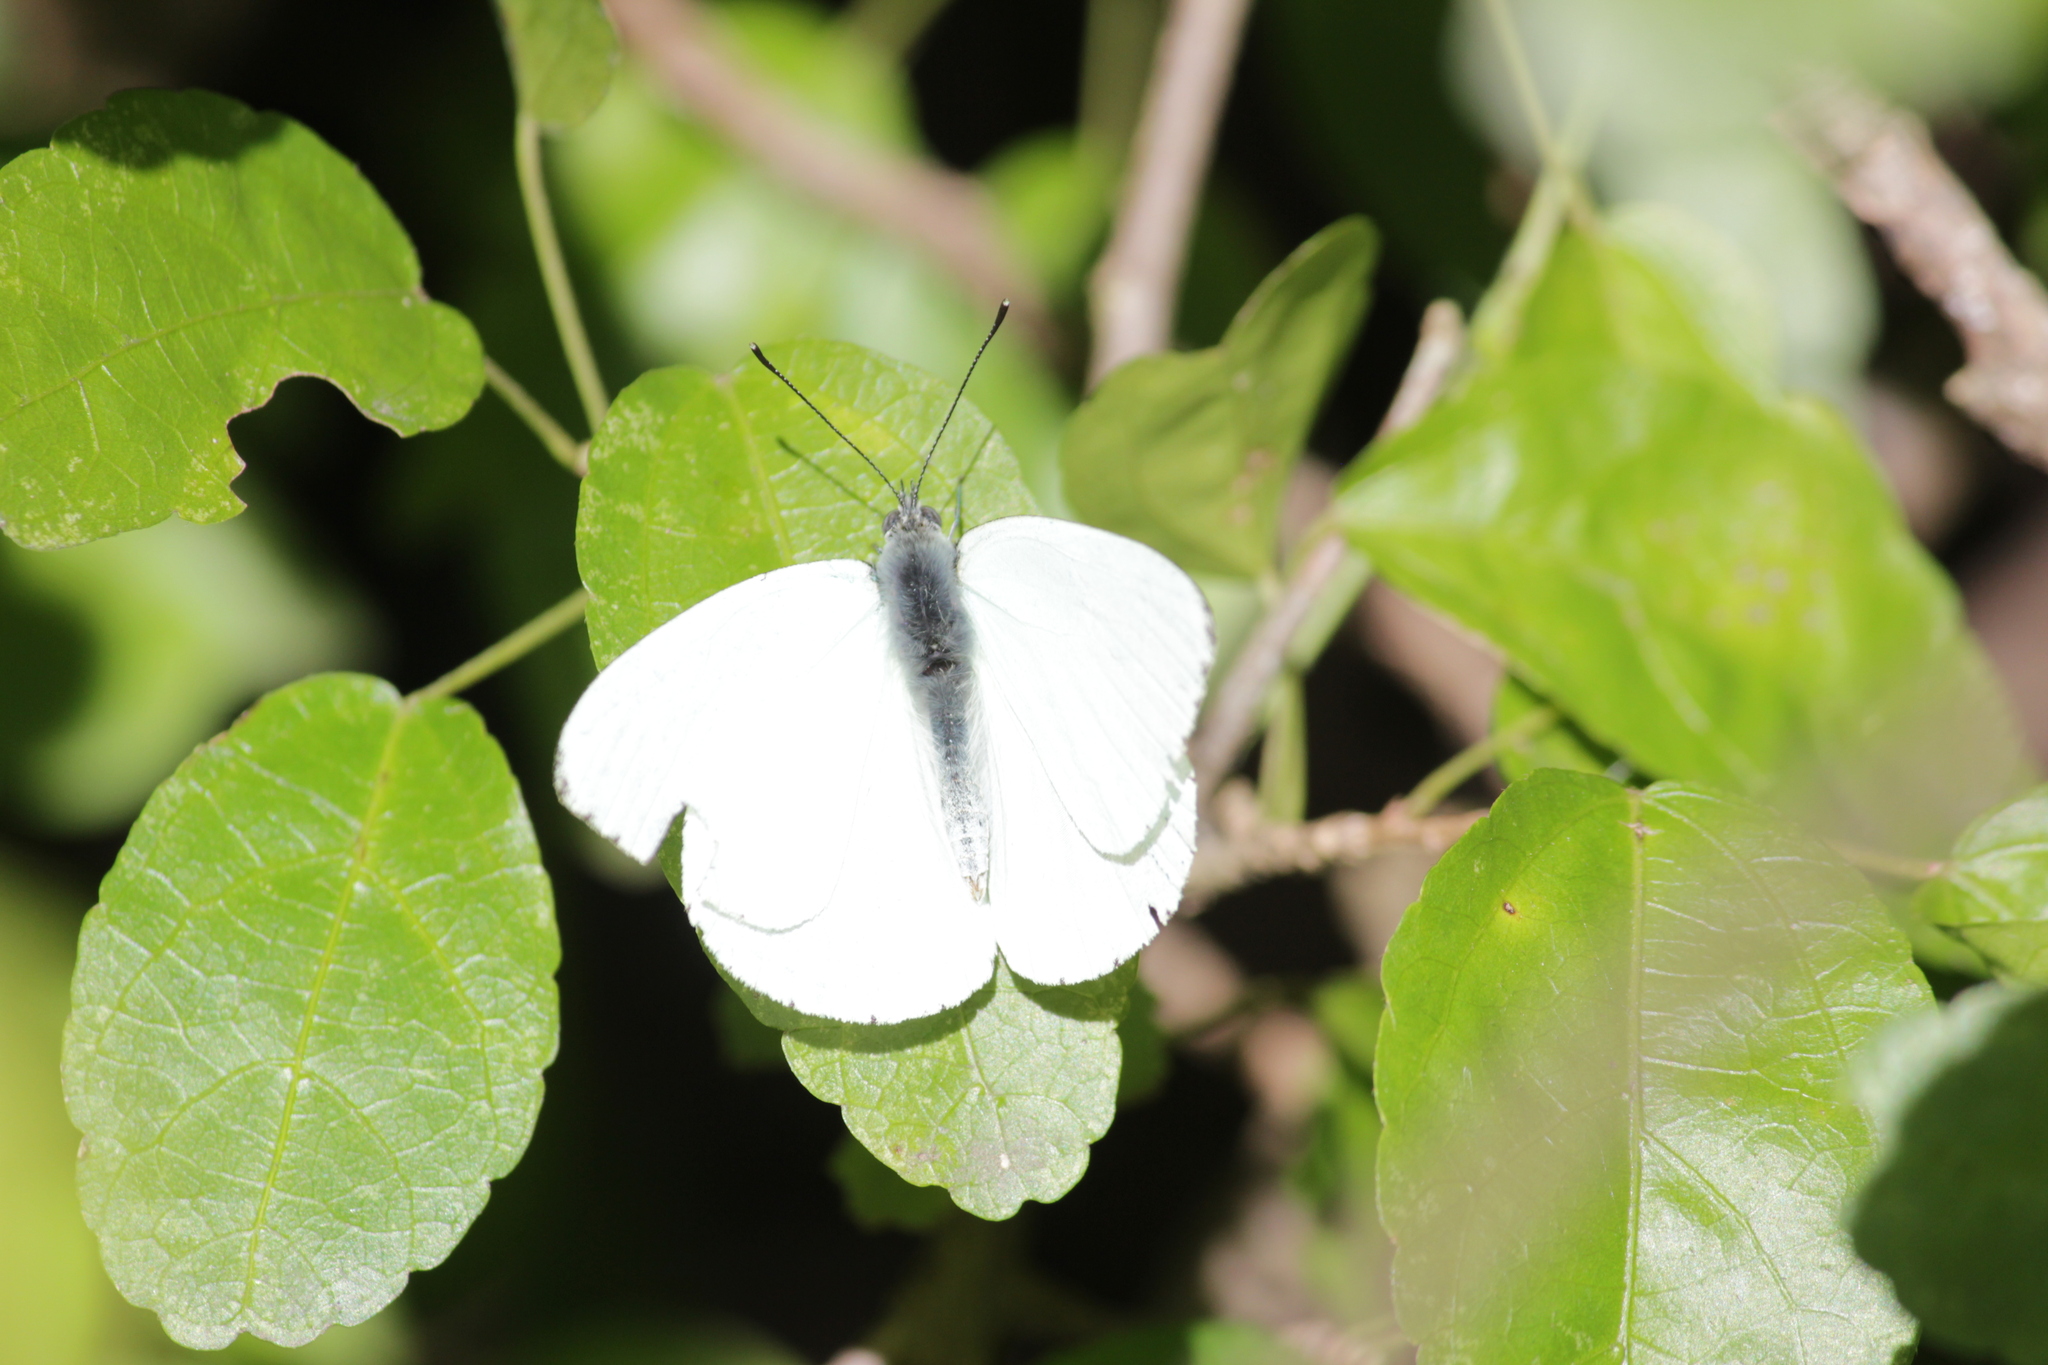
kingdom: Animalia
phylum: Arthropoda
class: Insecta
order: Lepidoptera
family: Pieridae
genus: Dixeia
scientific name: Dixeia pigea
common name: Ant-heap small white
